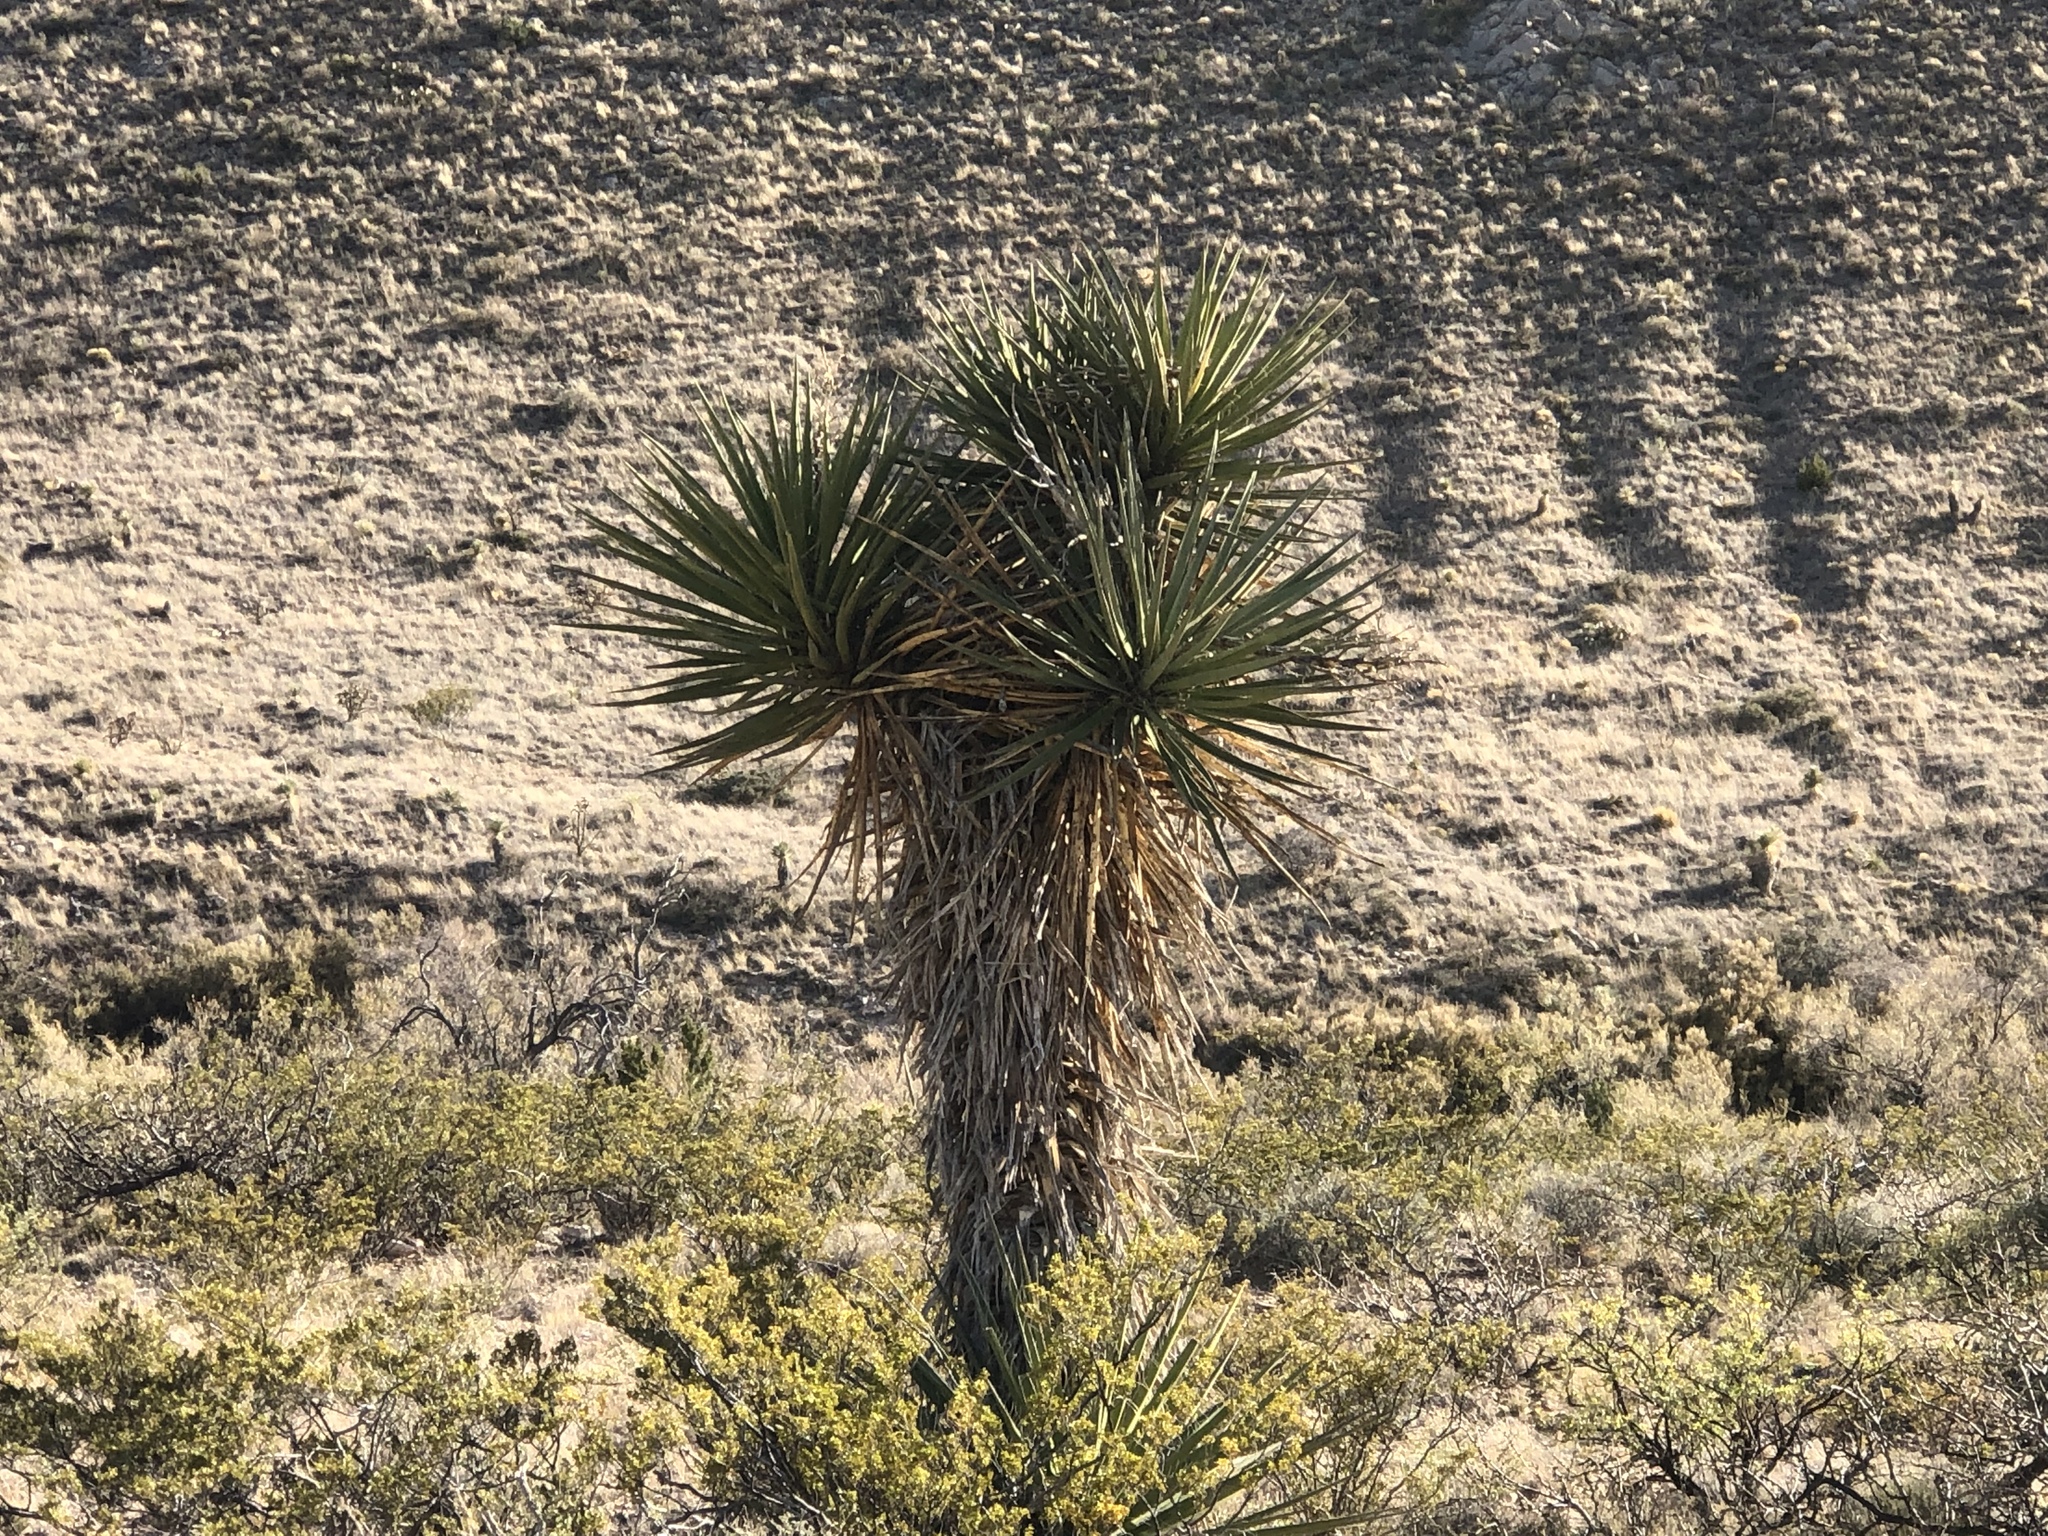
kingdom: Plantae
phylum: Tracheophyta
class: Liliopsida
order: Asparagales
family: Asparagaceae
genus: Yucca
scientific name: Yucca treculiana
